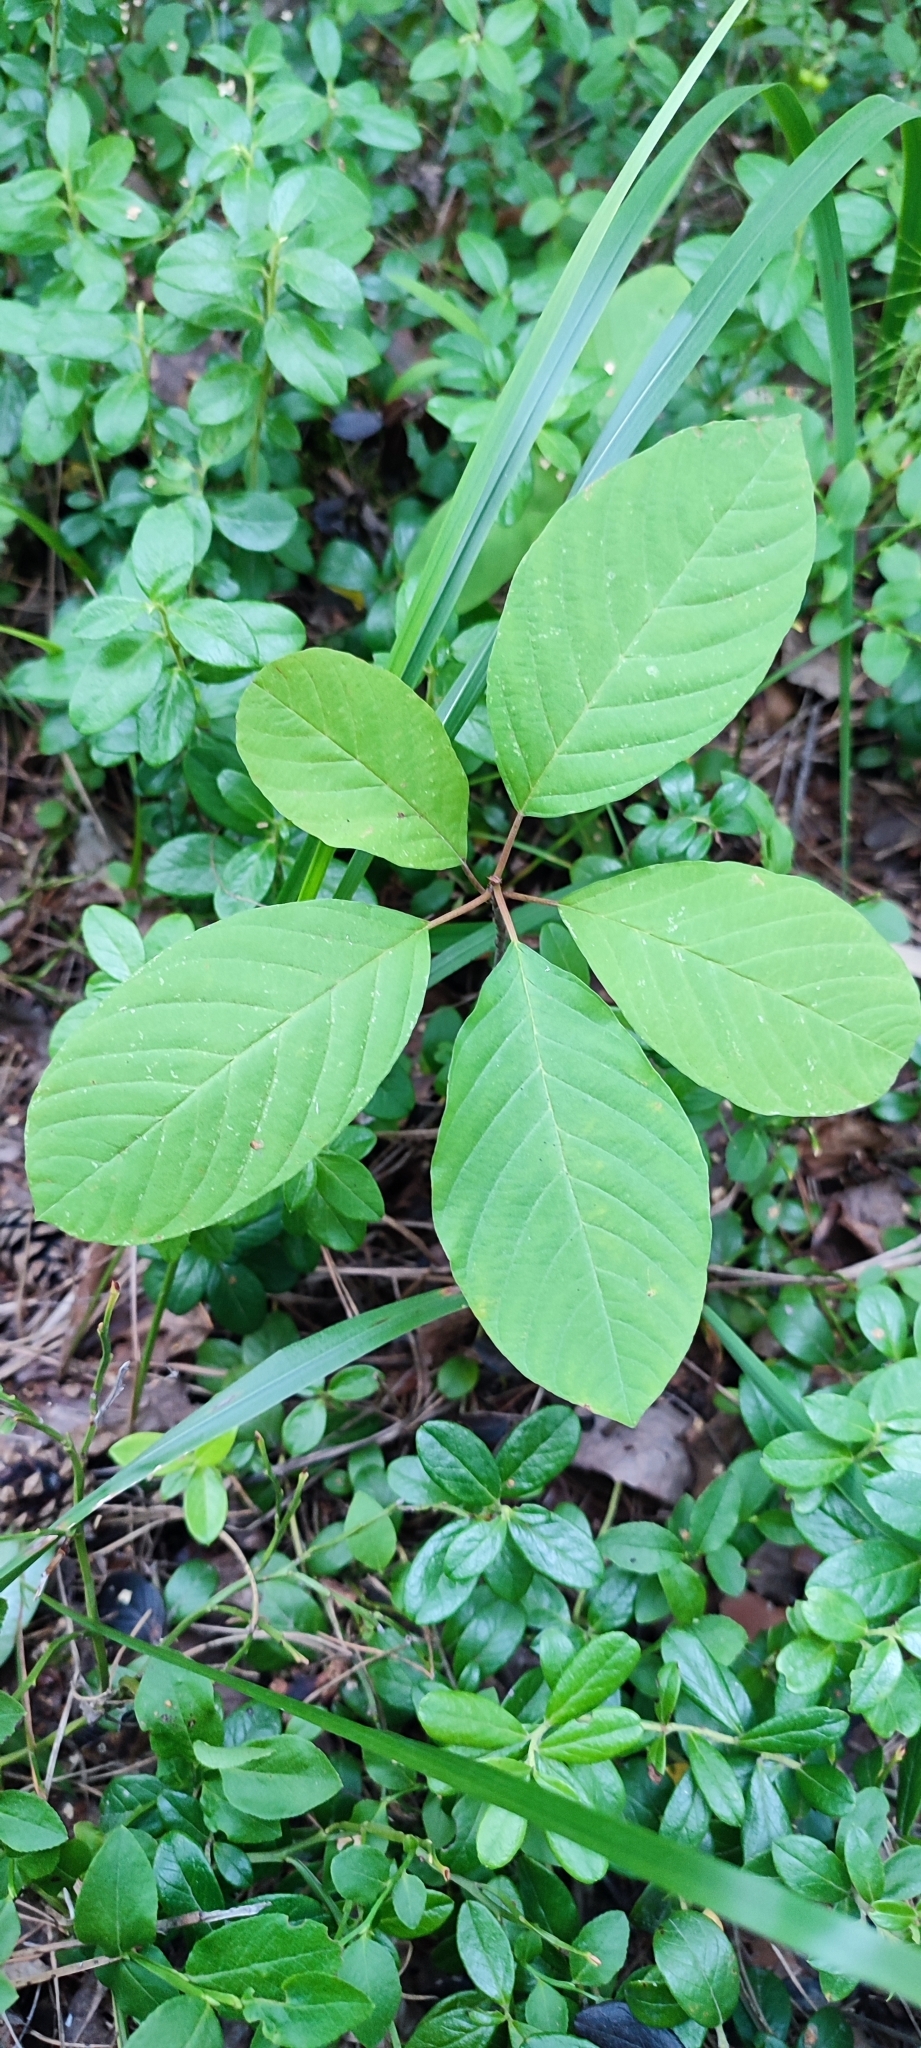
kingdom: Plantae
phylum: Tracheophyta
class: Magnoliopsida
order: Rosales
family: Rhamnaceae
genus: Frangula
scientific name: Frangula alnus
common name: Alder buckthorn
